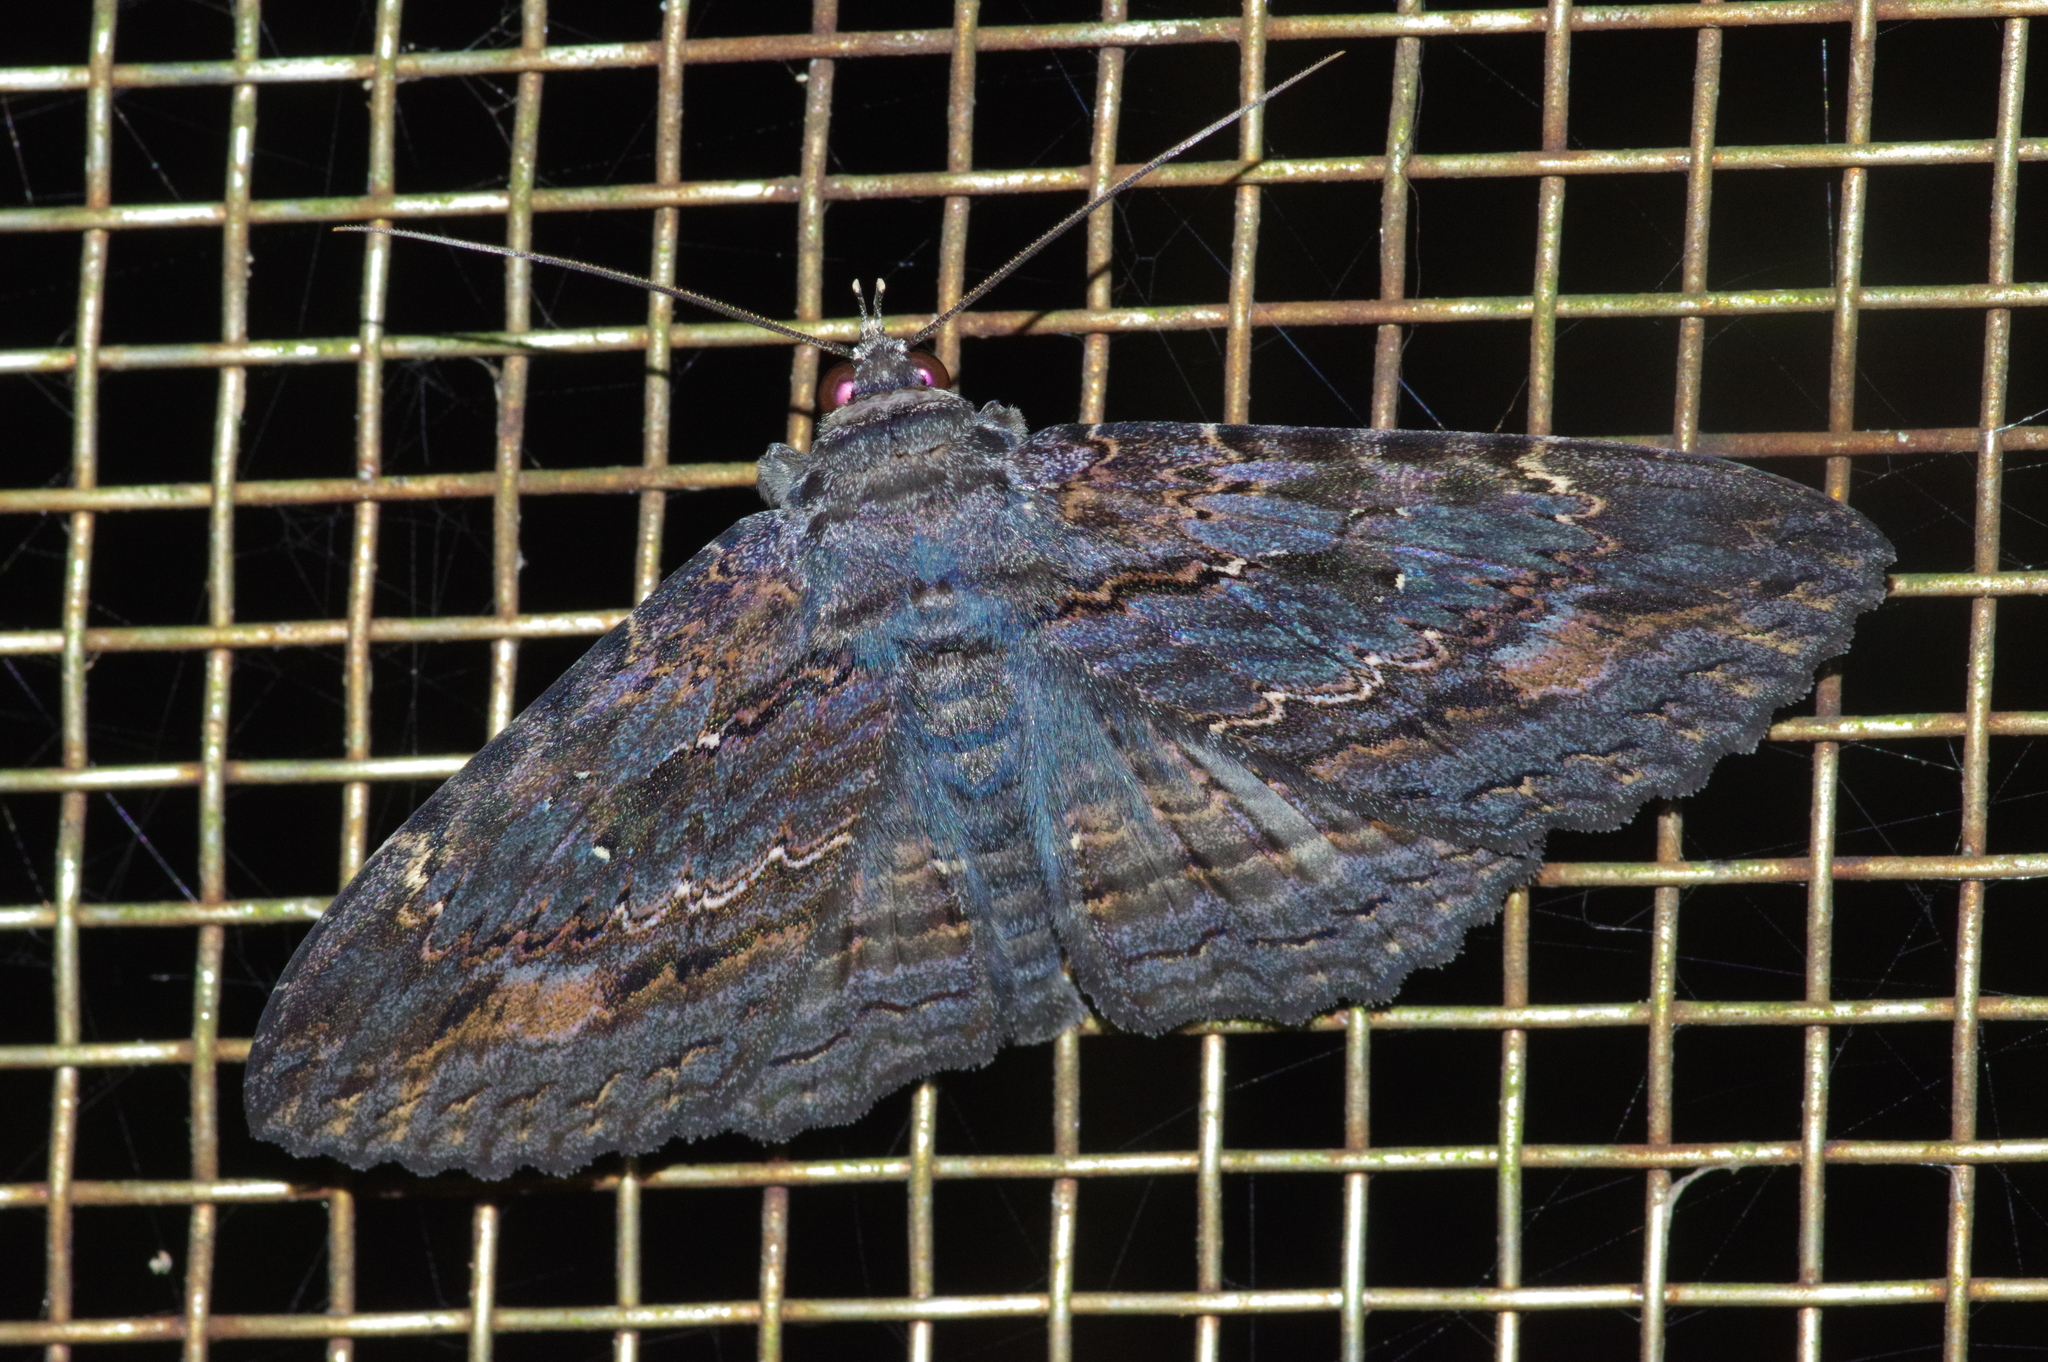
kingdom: Animalia
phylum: Arthropoda
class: Insecta
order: Lepidoptera
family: Erebidae
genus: Anisoneura
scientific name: Anisoneura salebrosa
